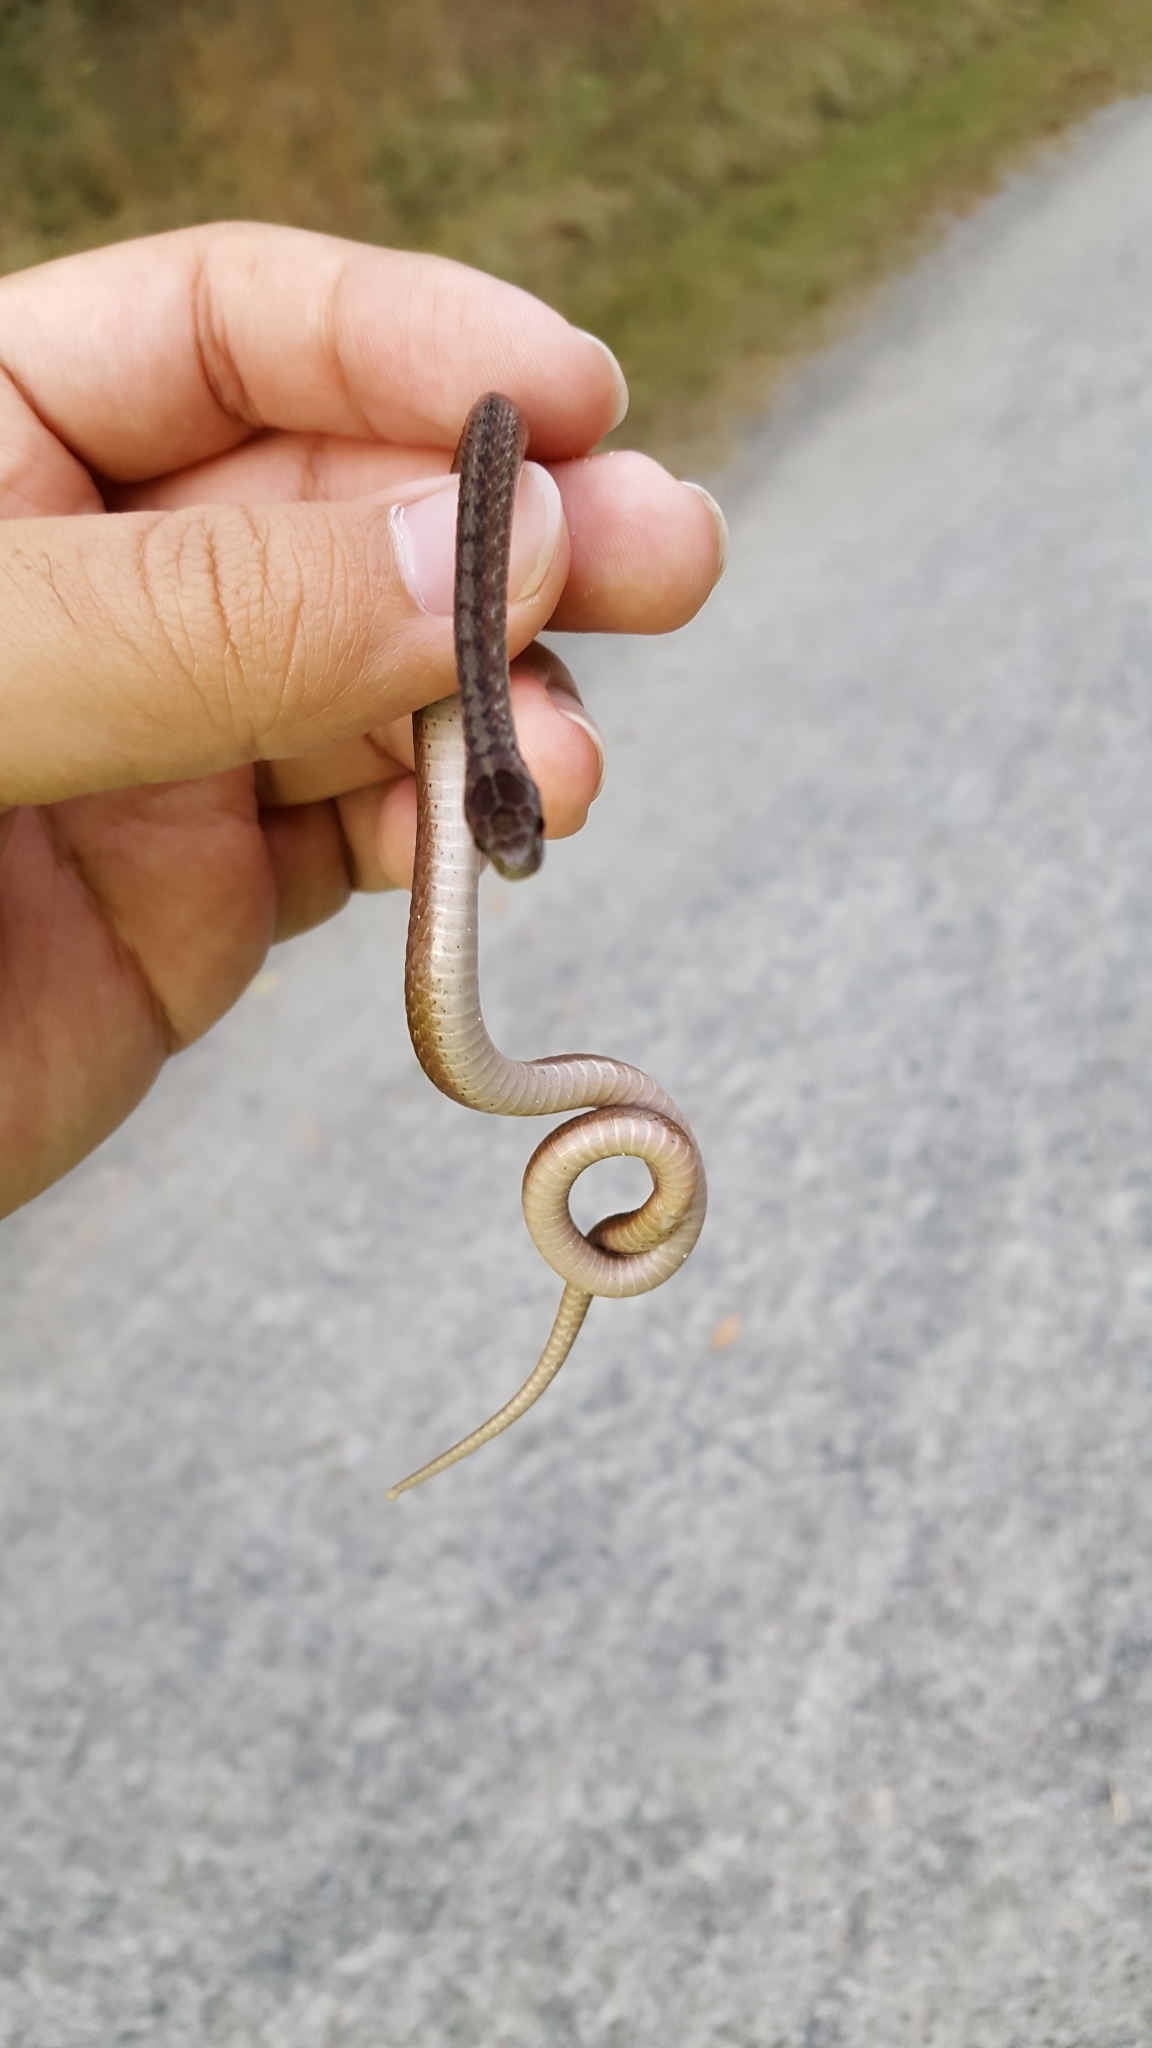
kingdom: Animalia
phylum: Chordata
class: Squamata
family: Colubridae
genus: Storeria
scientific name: Storeria dekayi
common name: (dekay’s) brown snake
